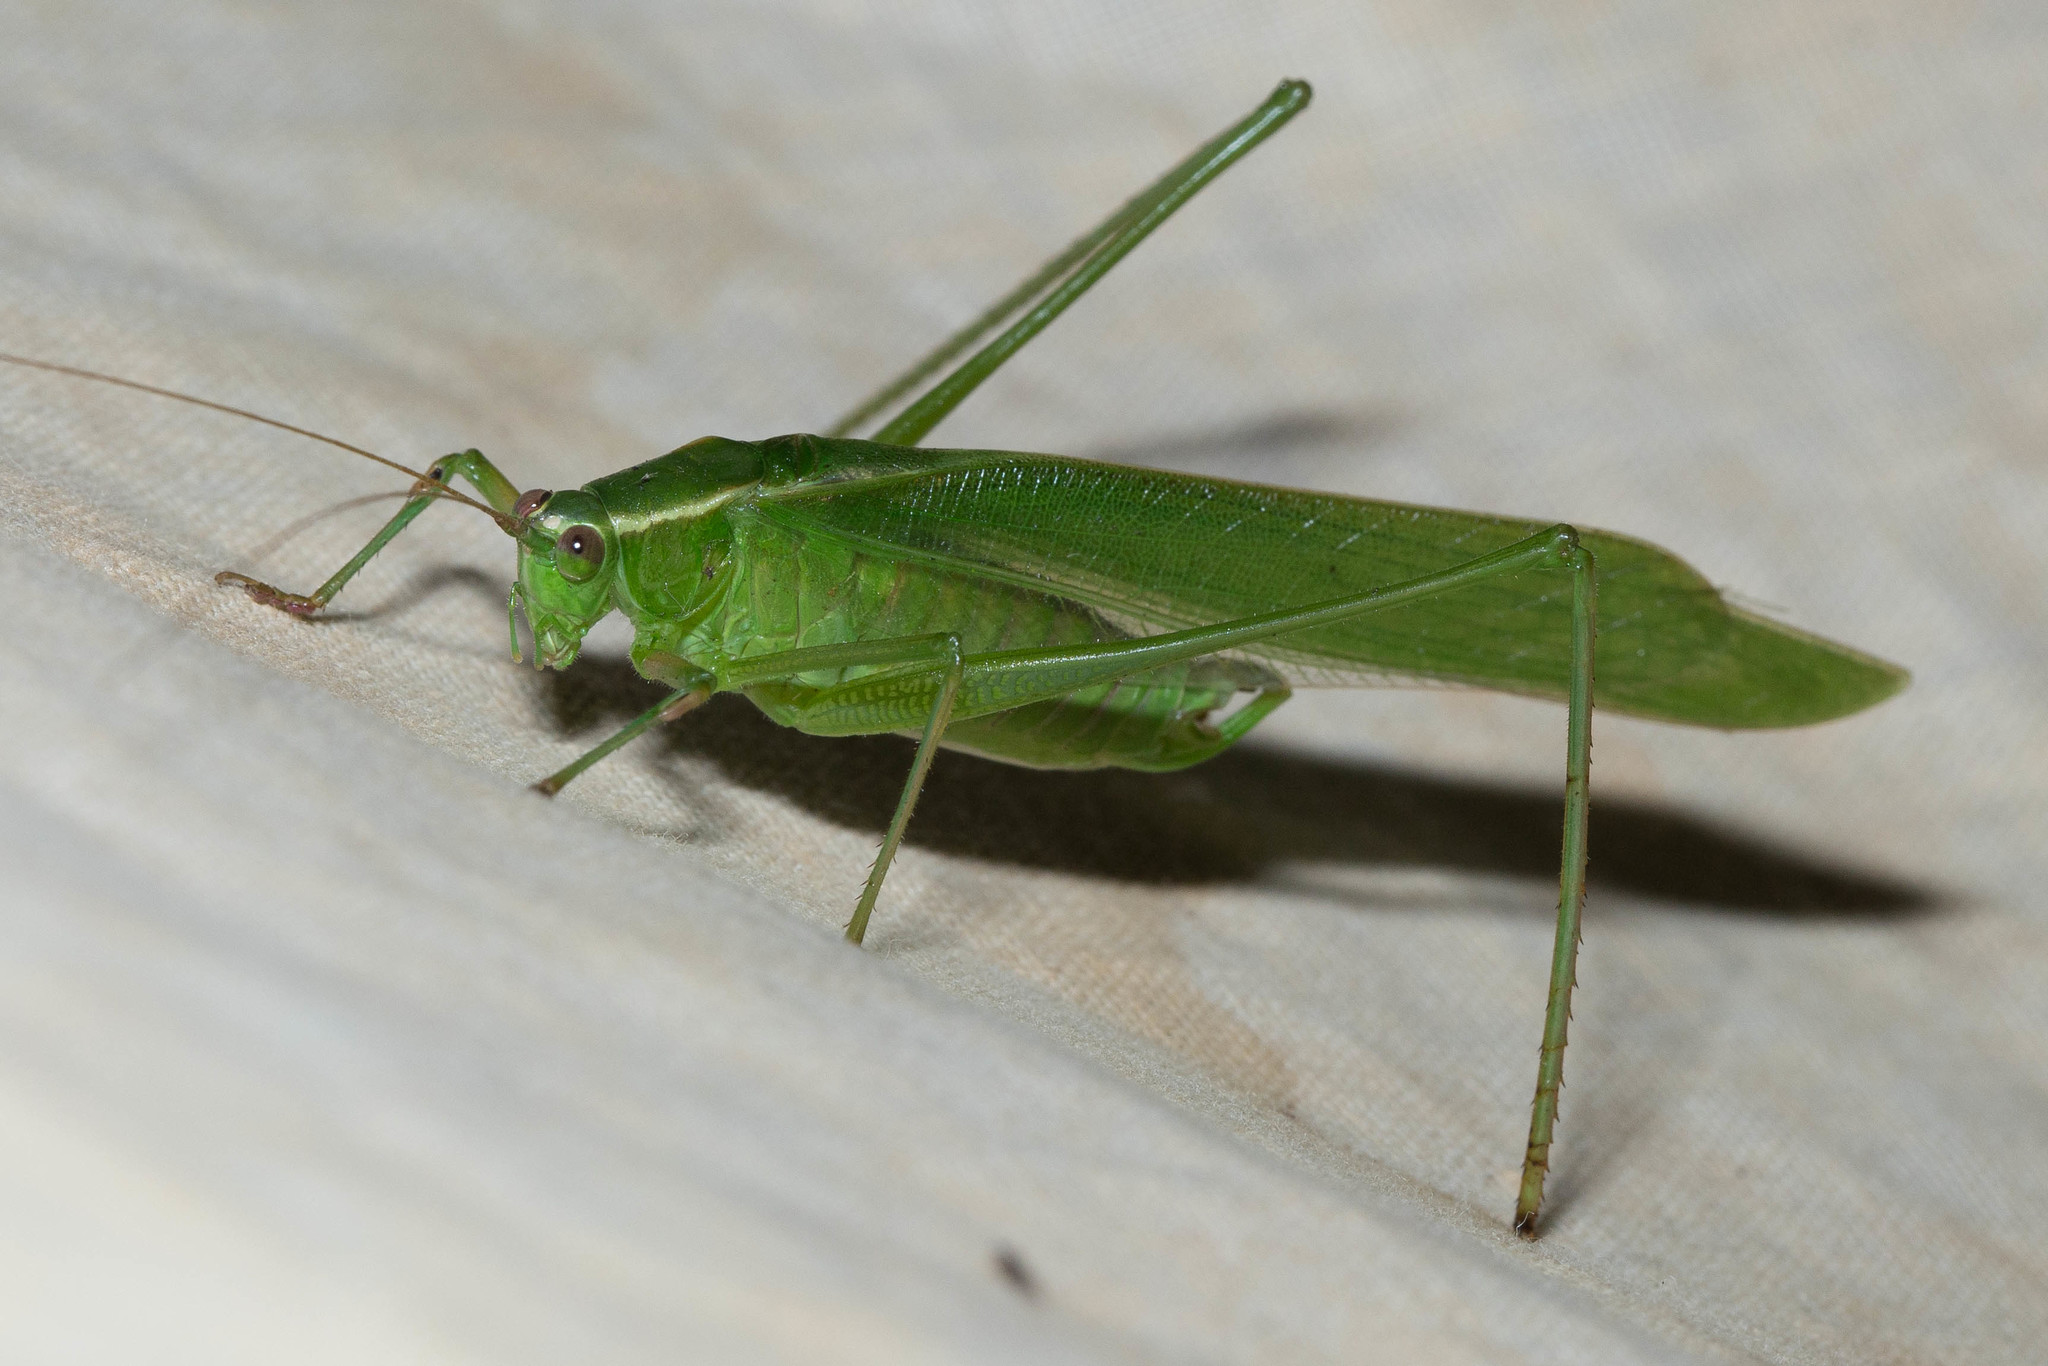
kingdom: Animalia
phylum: Arthropoda
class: Insecta
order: Orthoptera
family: Tettigoniidae
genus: Scudderia
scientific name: Scudderia mexicana
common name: Mexican bush katydid
